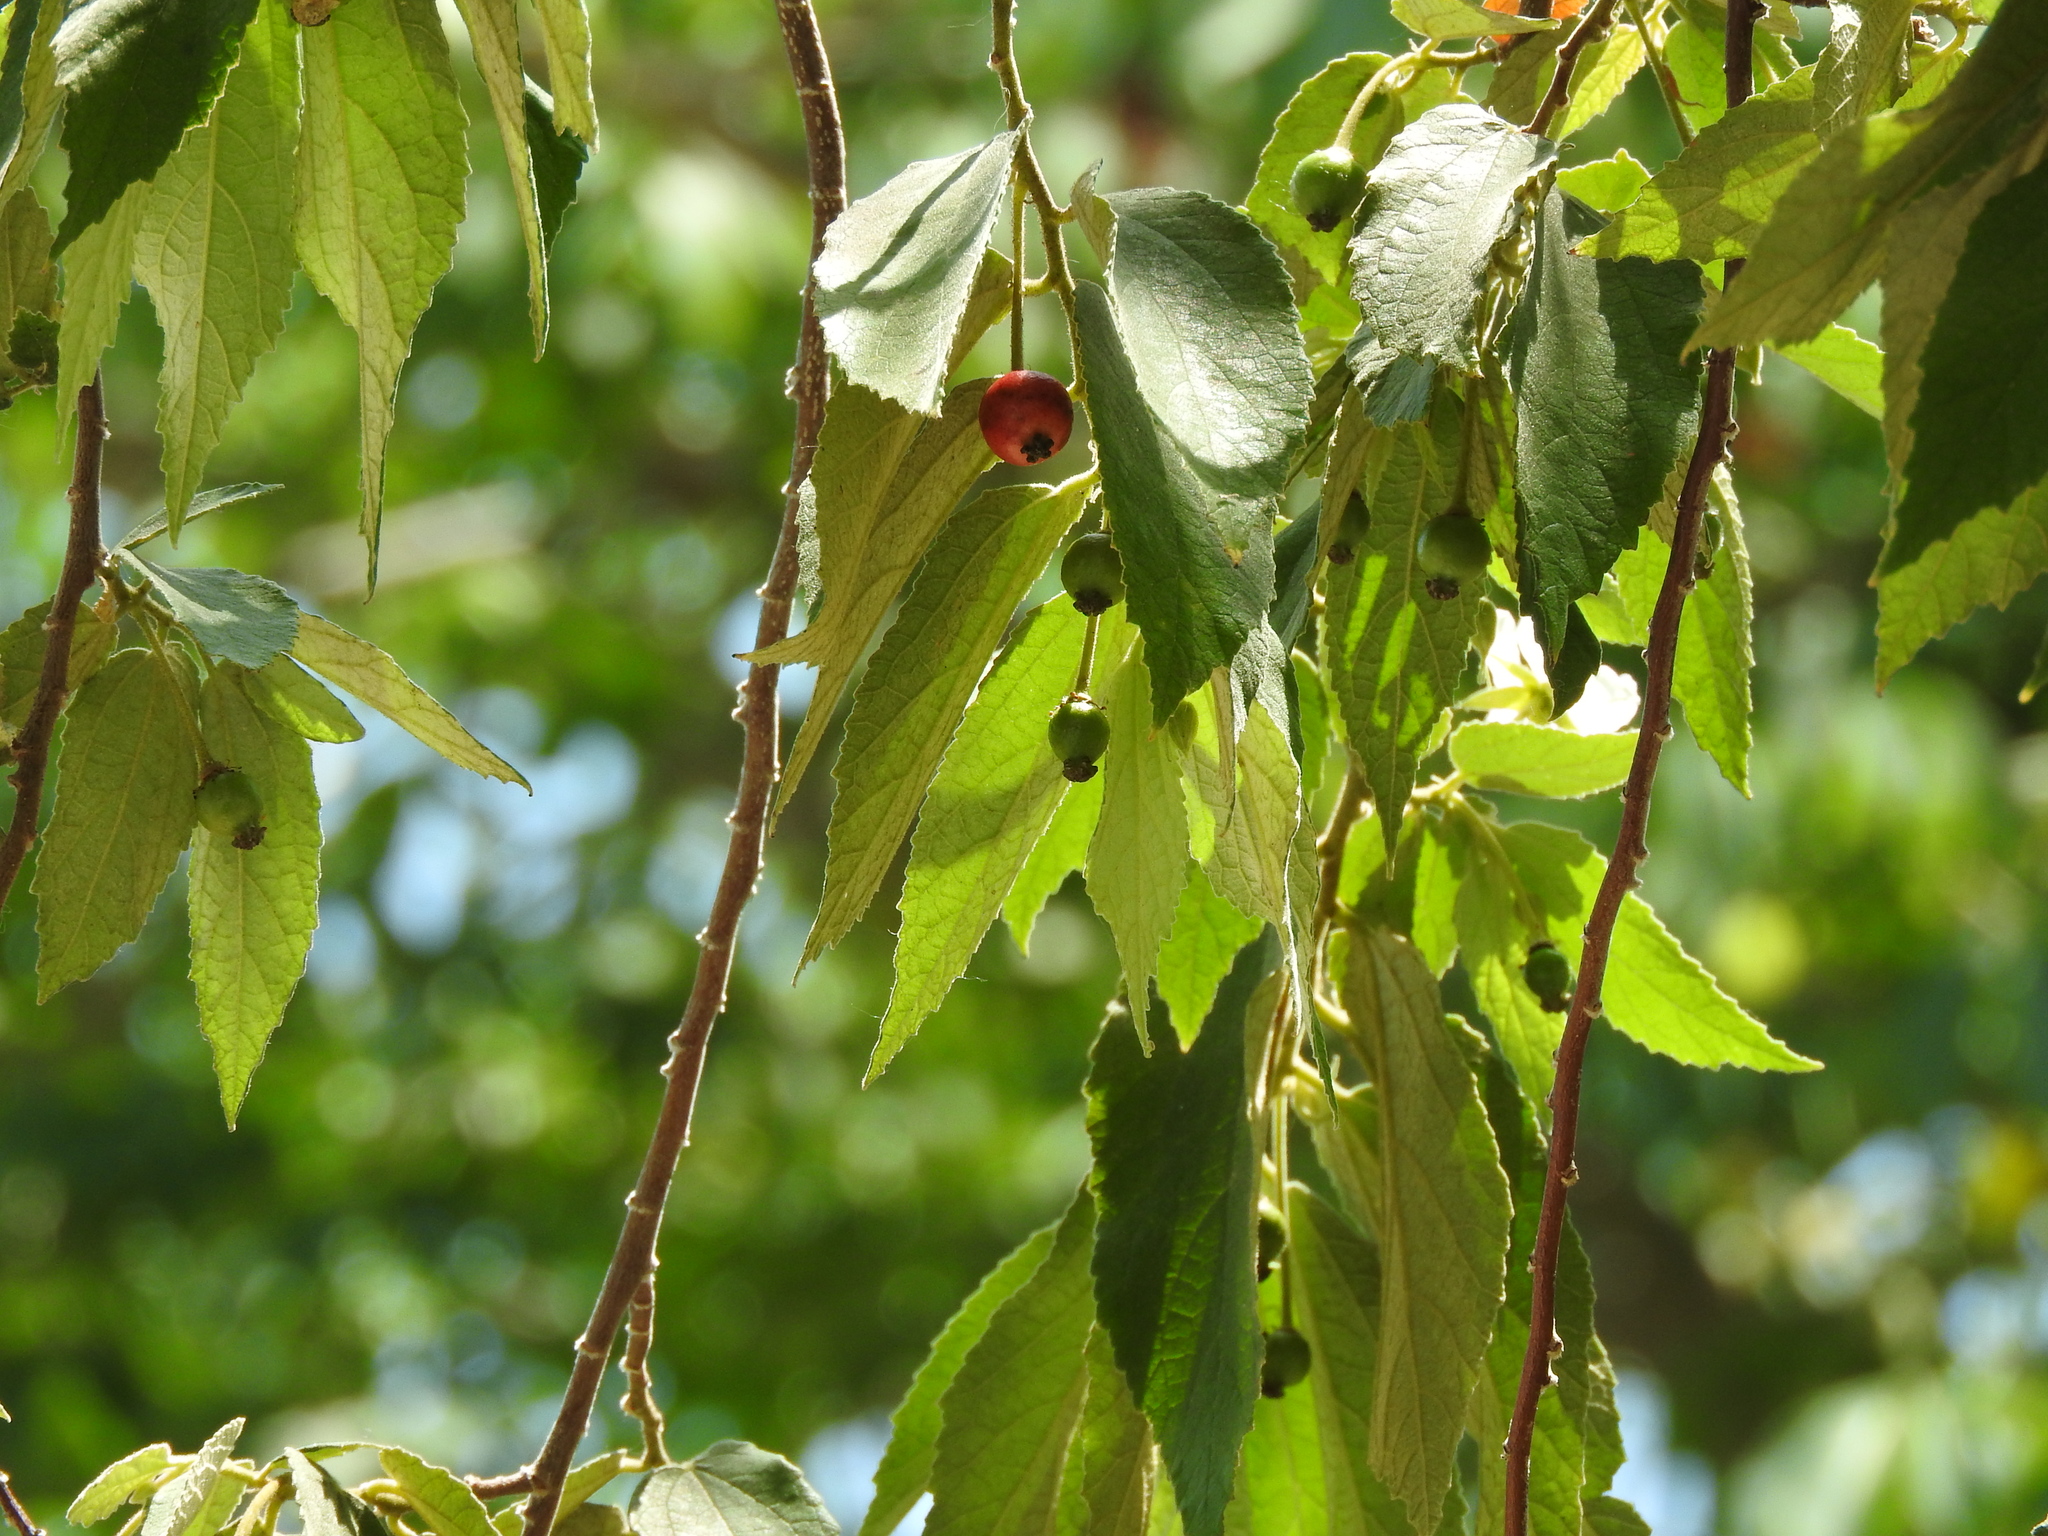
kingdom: Plantae
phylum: Tracheophyta
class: Magnoliopsida
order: Malvales
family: Muntingiaceae
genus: Muntingia
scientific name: Muntingia calabura
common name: Strawberrytree
